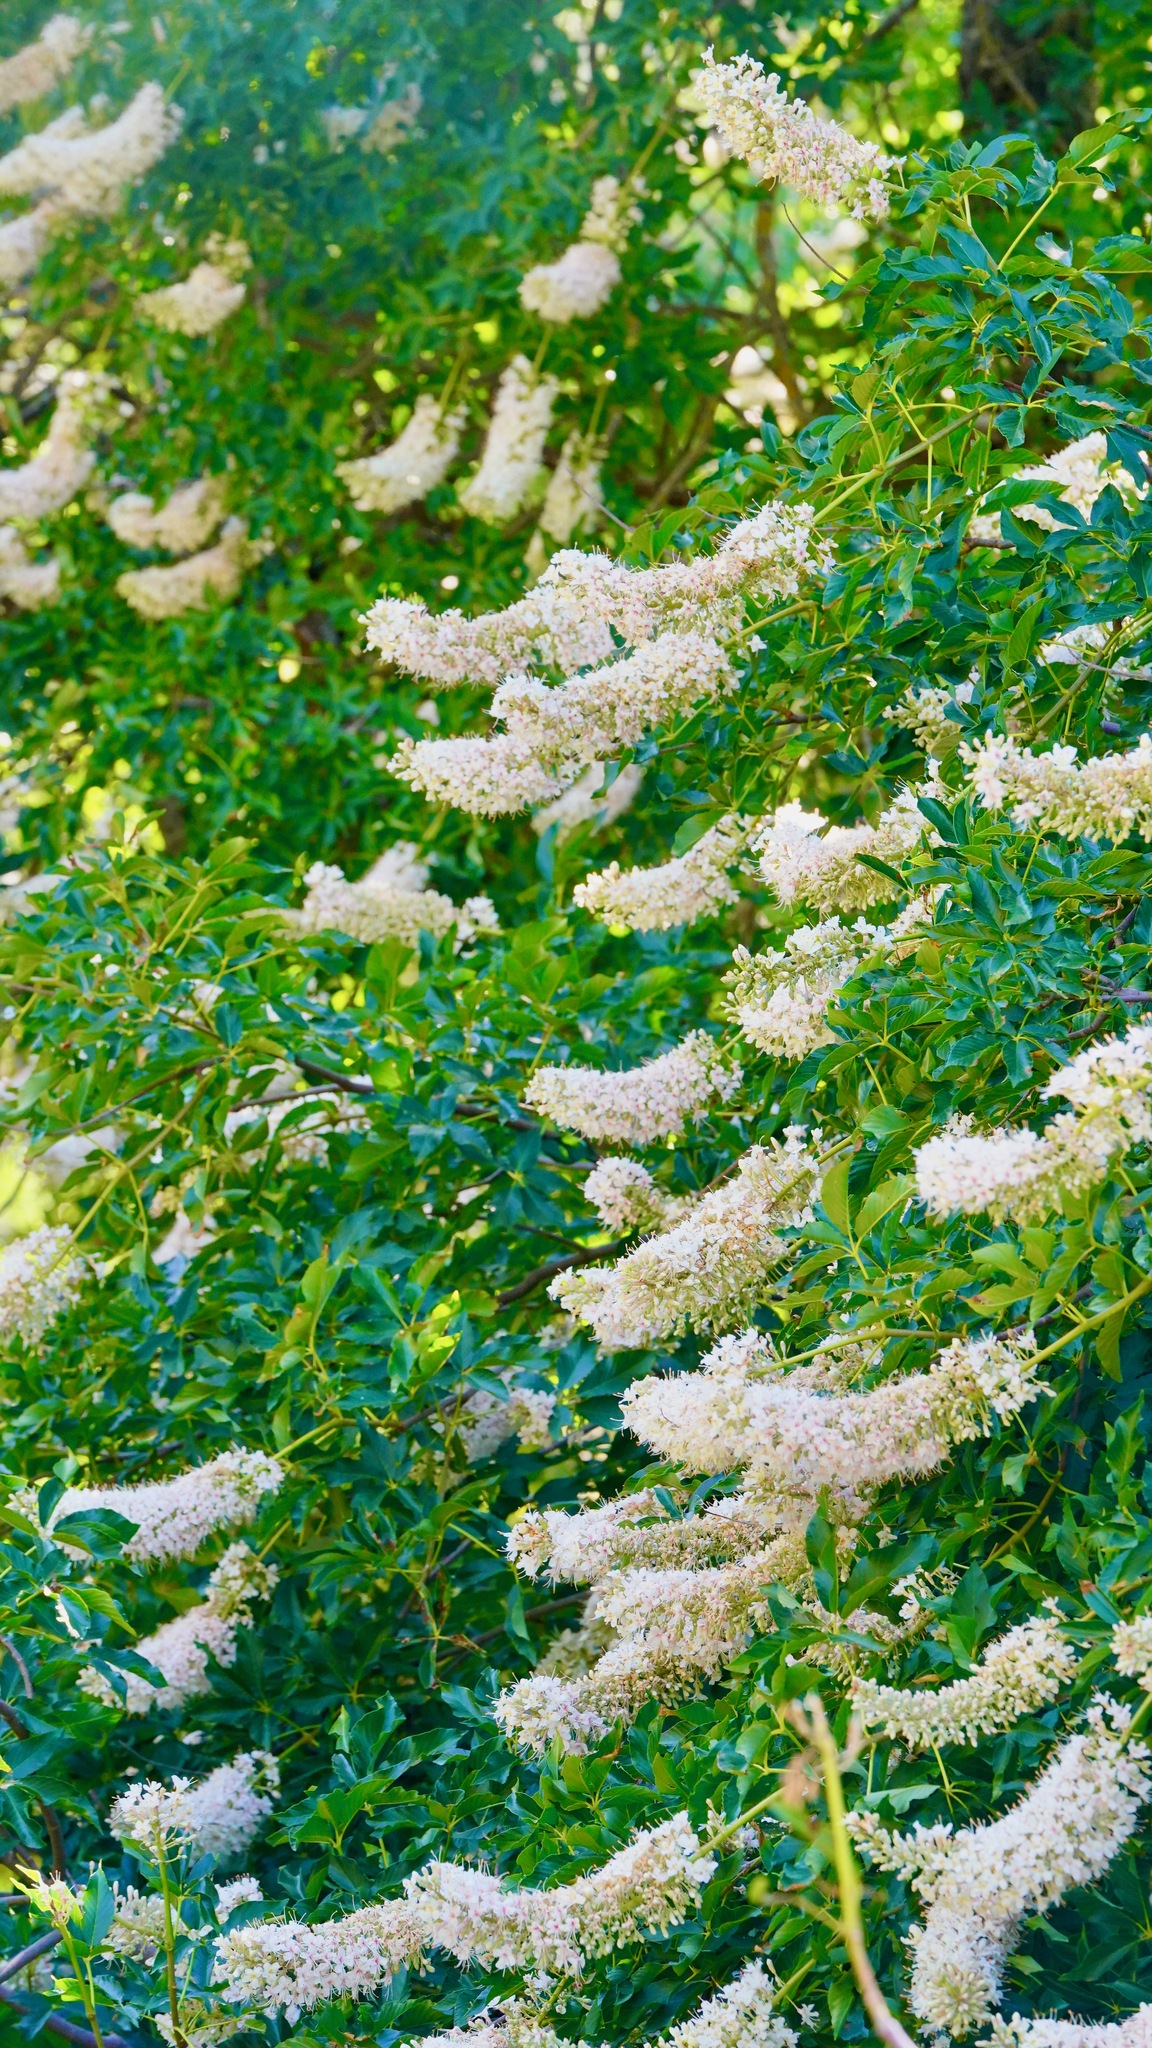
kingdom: Plantae
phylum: Tracheophyta
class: Magnoliopsida
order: Sapindales
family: Sapindaceae
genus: Aesculus
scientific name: Aesculus californica
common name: California buckeye
